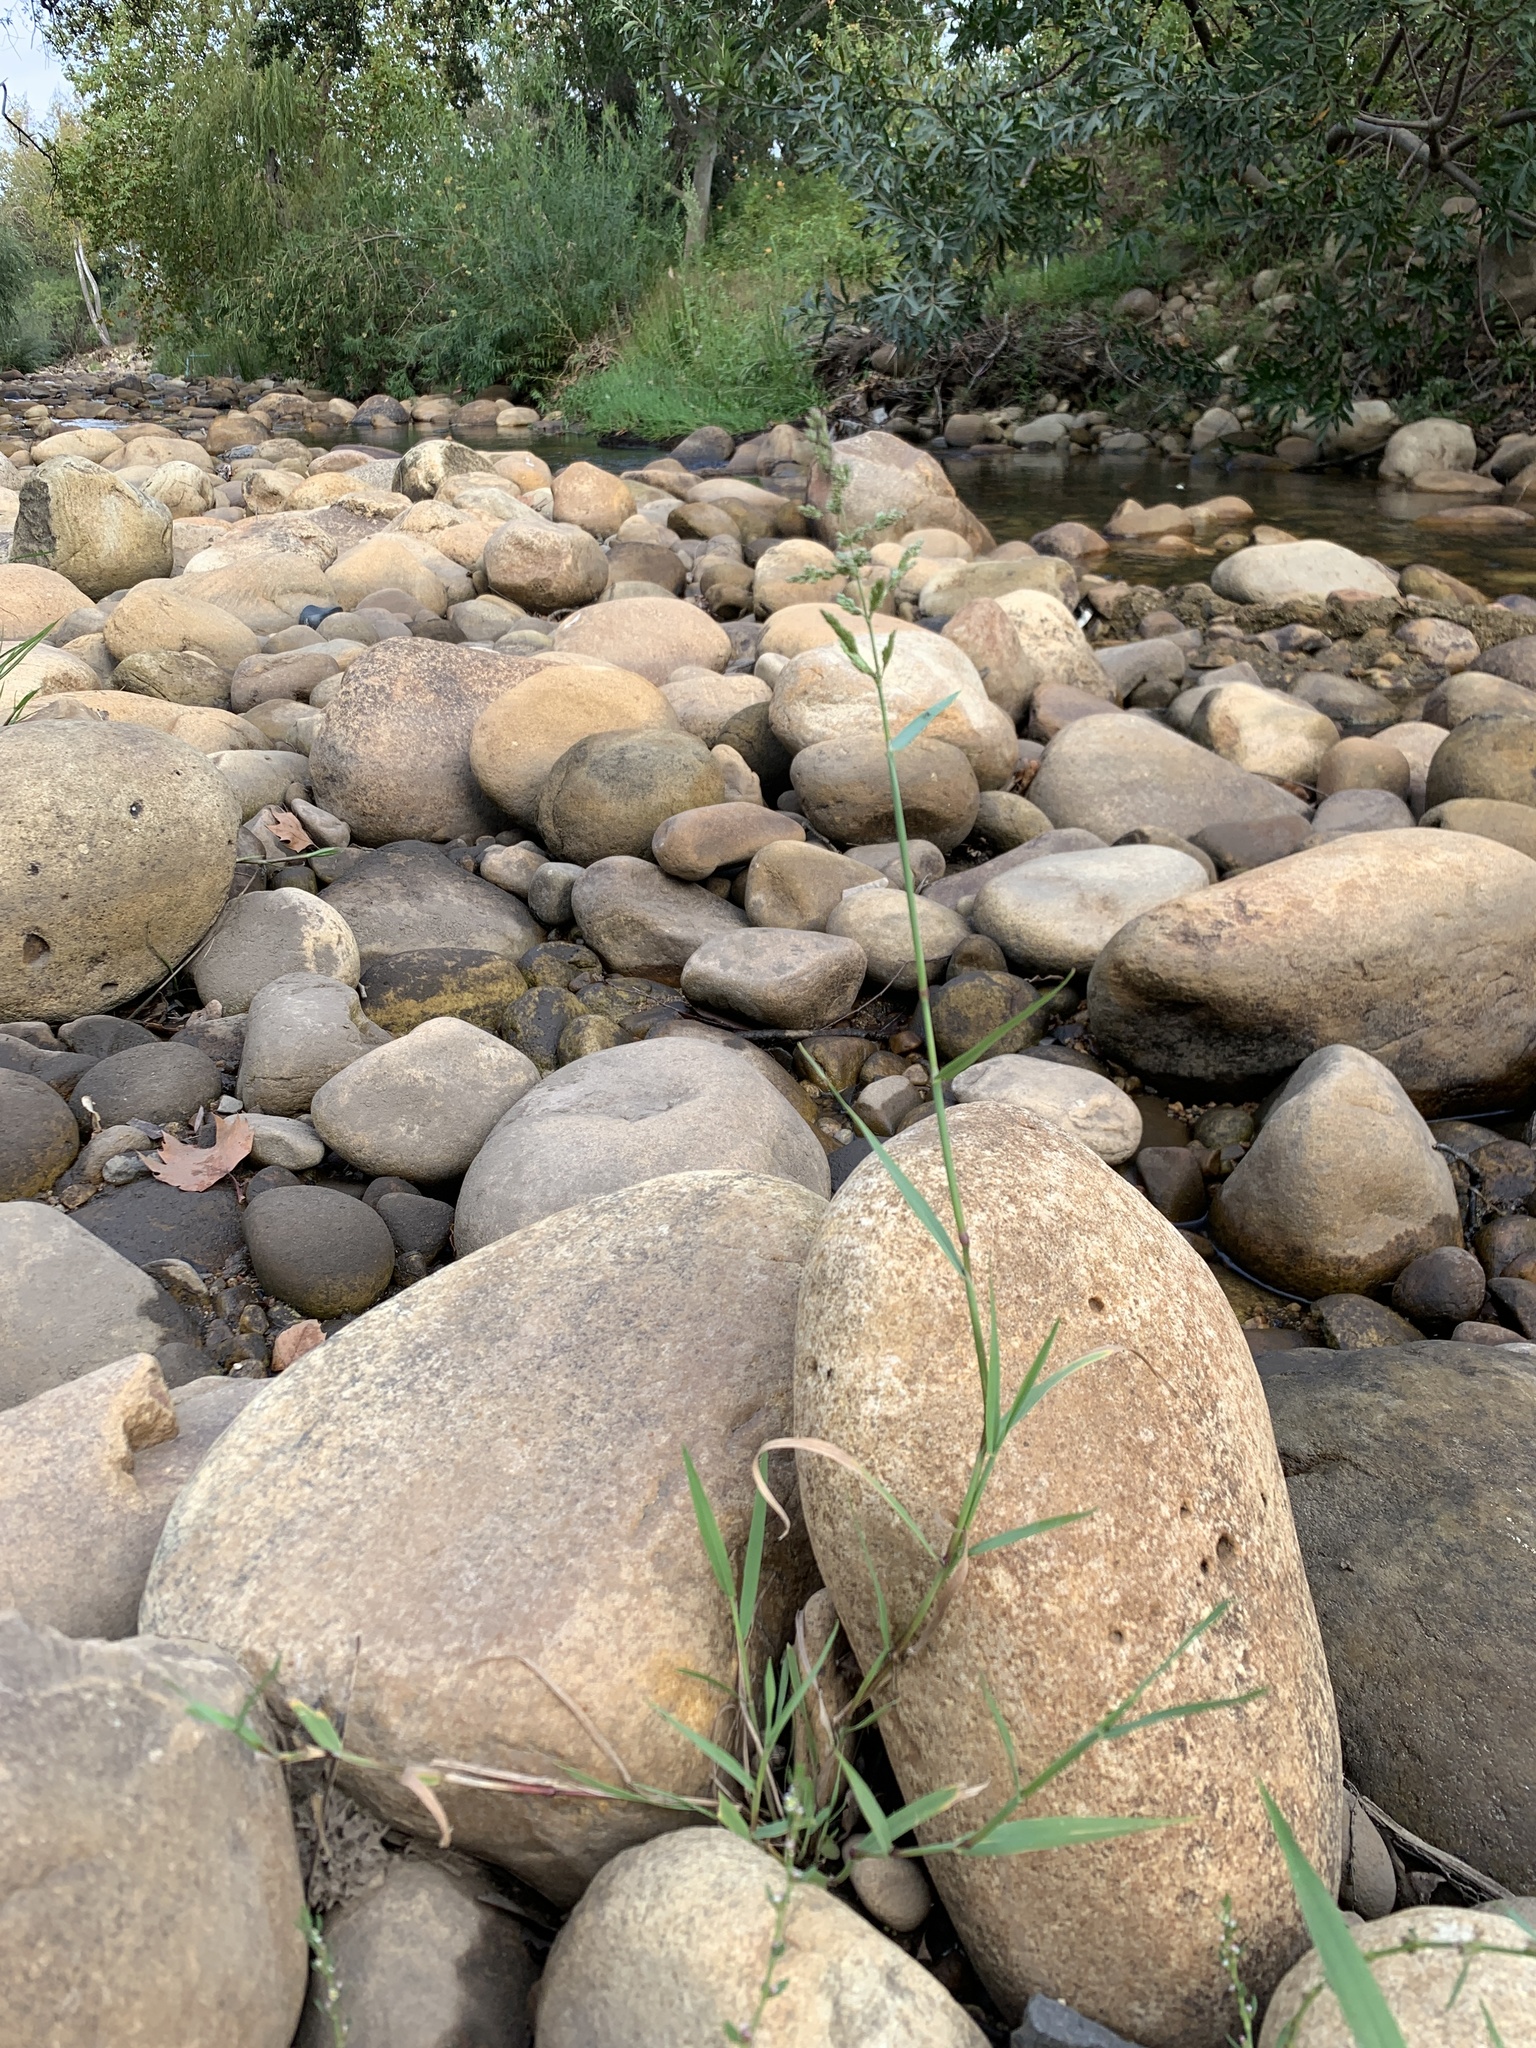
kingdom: Plantae
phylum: Tracheophyta
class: Liliopsida
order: Poales
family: Poaceae
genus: Polypogon
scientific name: Polypogon viridis
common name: Water bent
